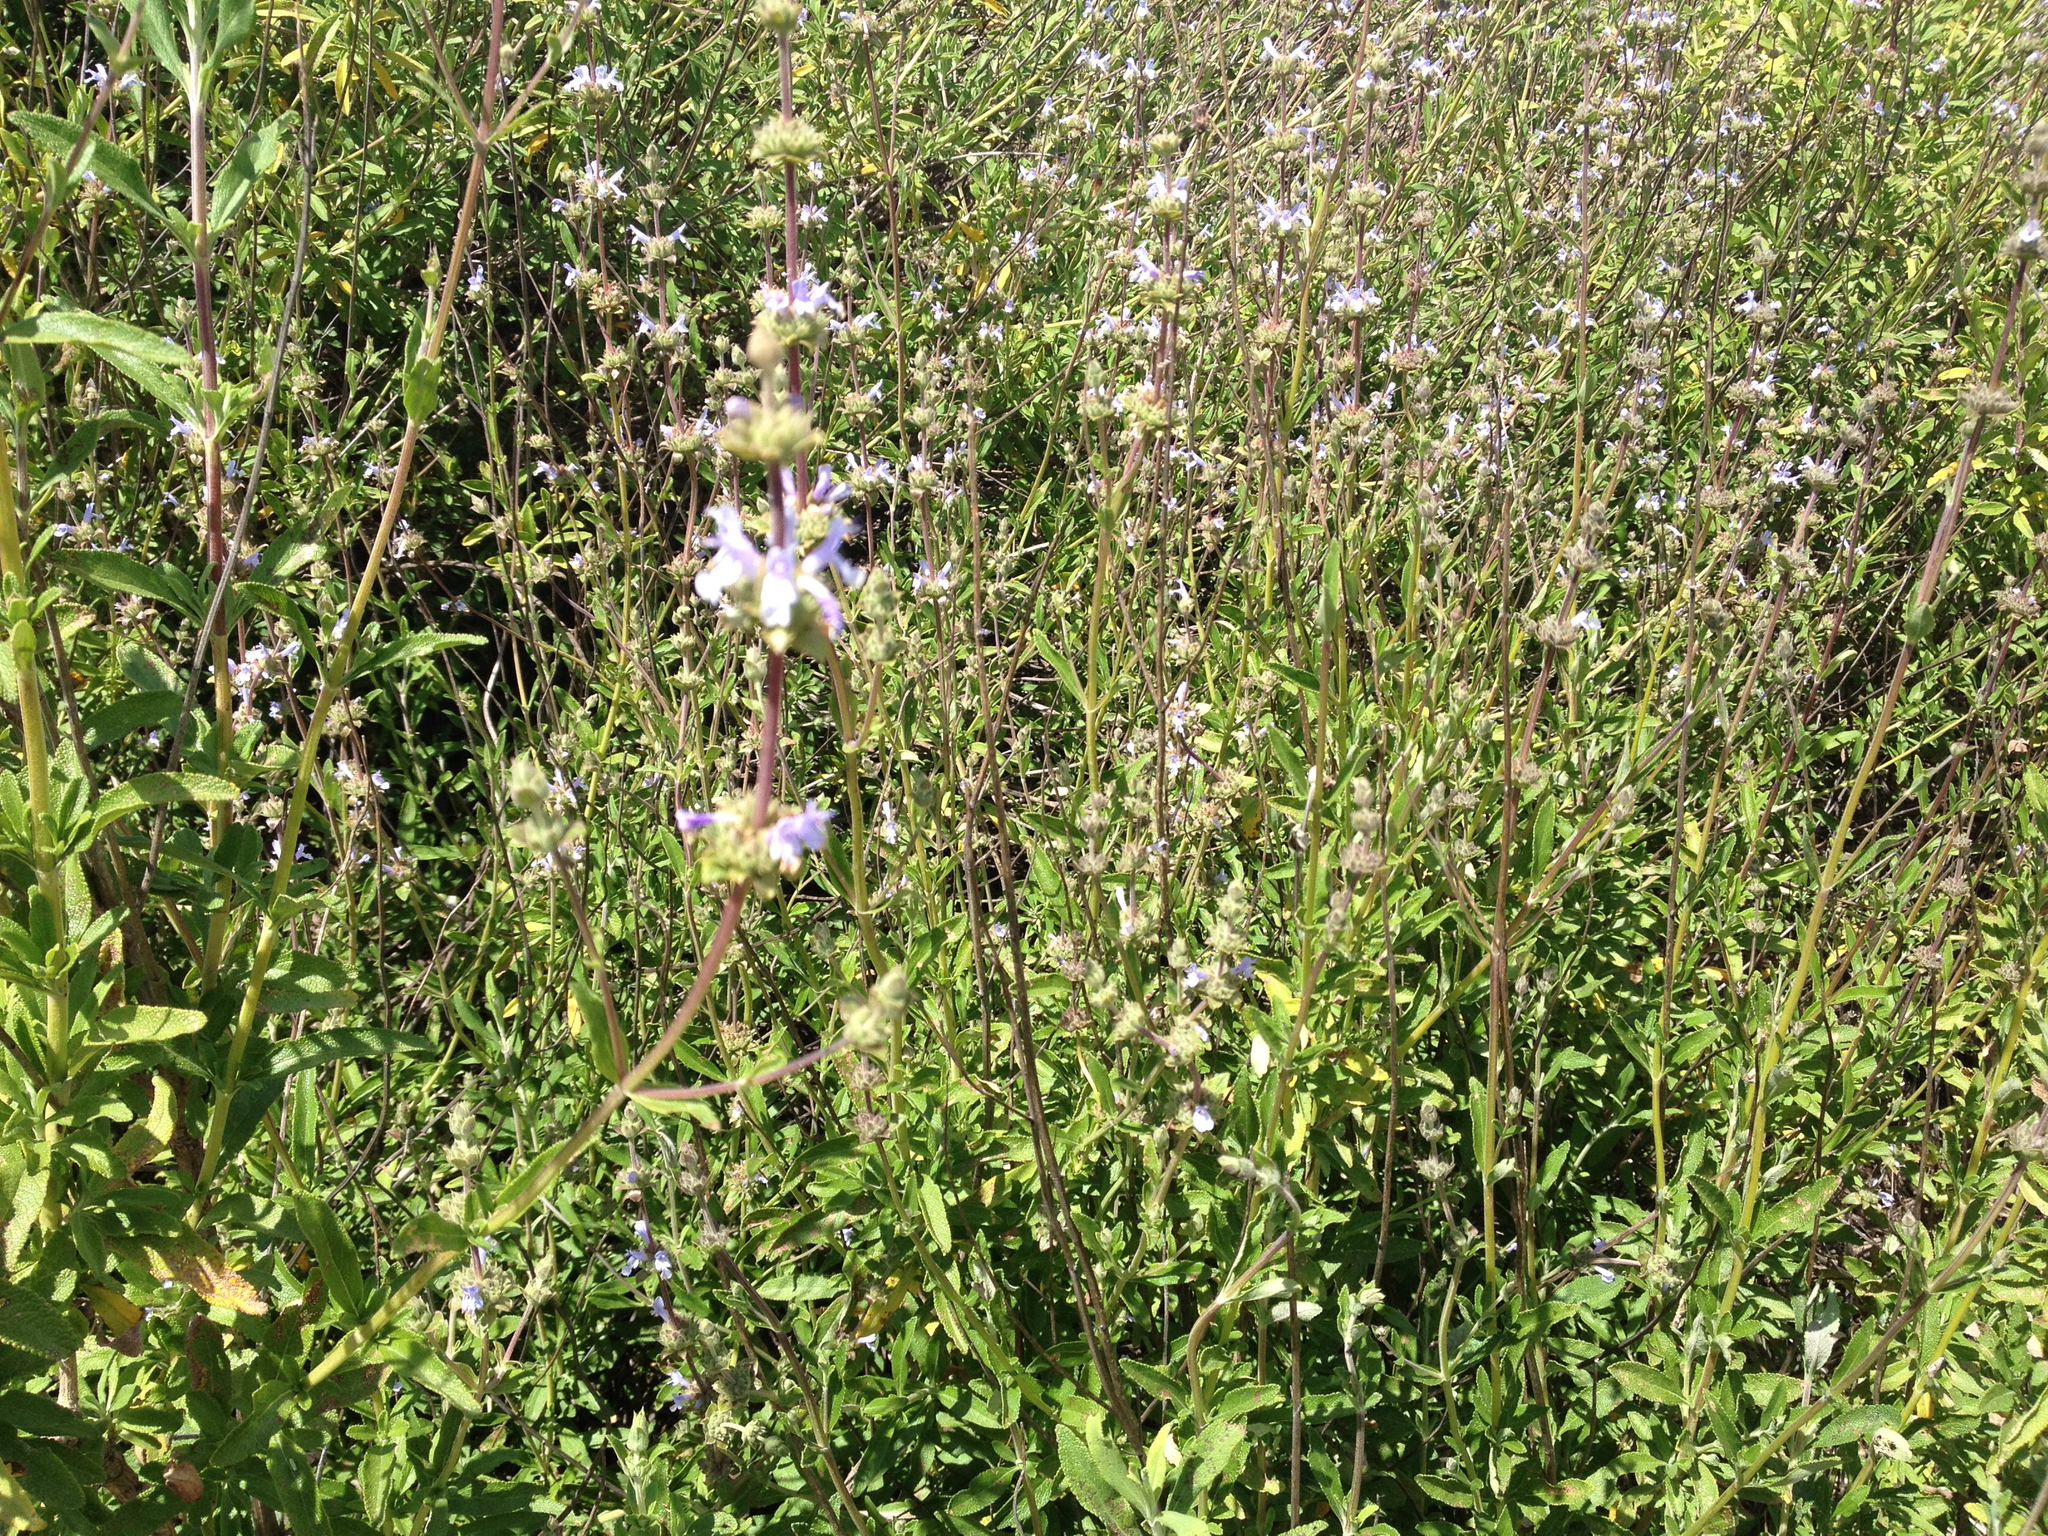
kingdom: Plantae
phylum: Tracheophyta
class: Magnoliopsida
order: Lamiales
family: Lamiaceae
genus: Salvia
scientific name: Salvia mellifera
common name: Black sage
